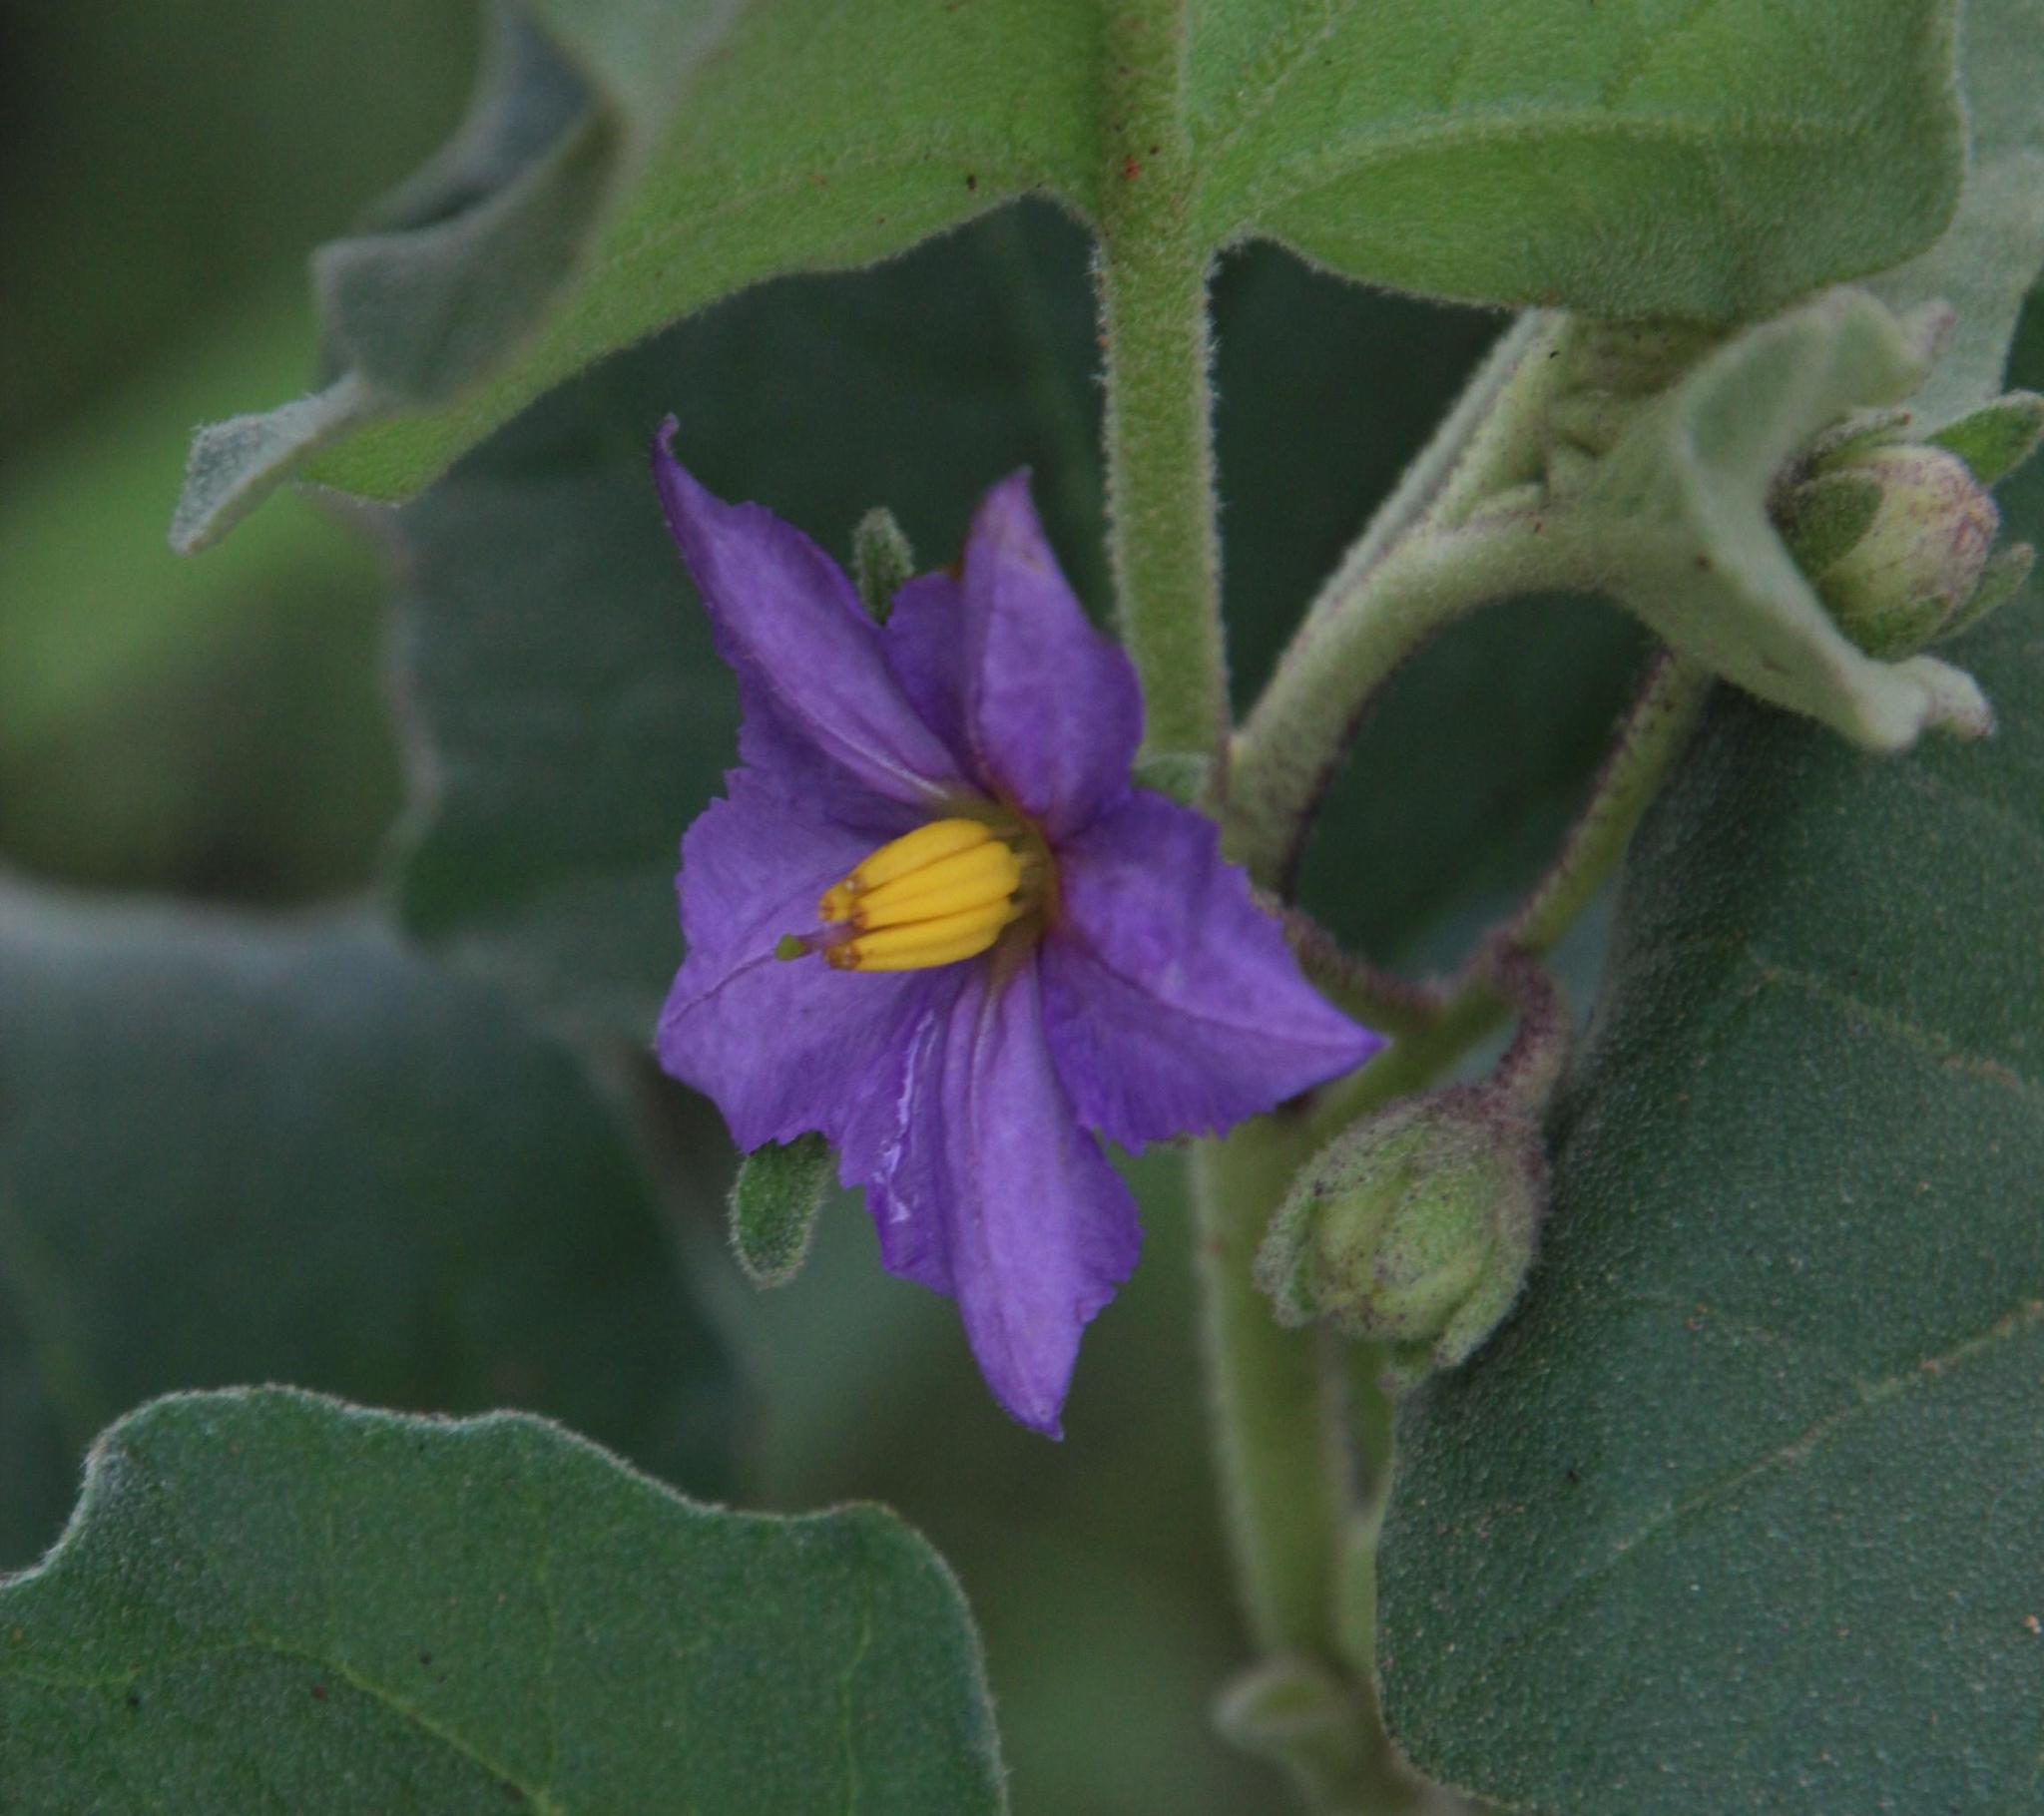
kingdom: Plantae
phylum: Tracheophyta
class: Magnoliopsida
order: Solanales
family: Solanaceae
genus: Solanum
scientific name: Solanum tomentosum
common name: Wild aubergine
